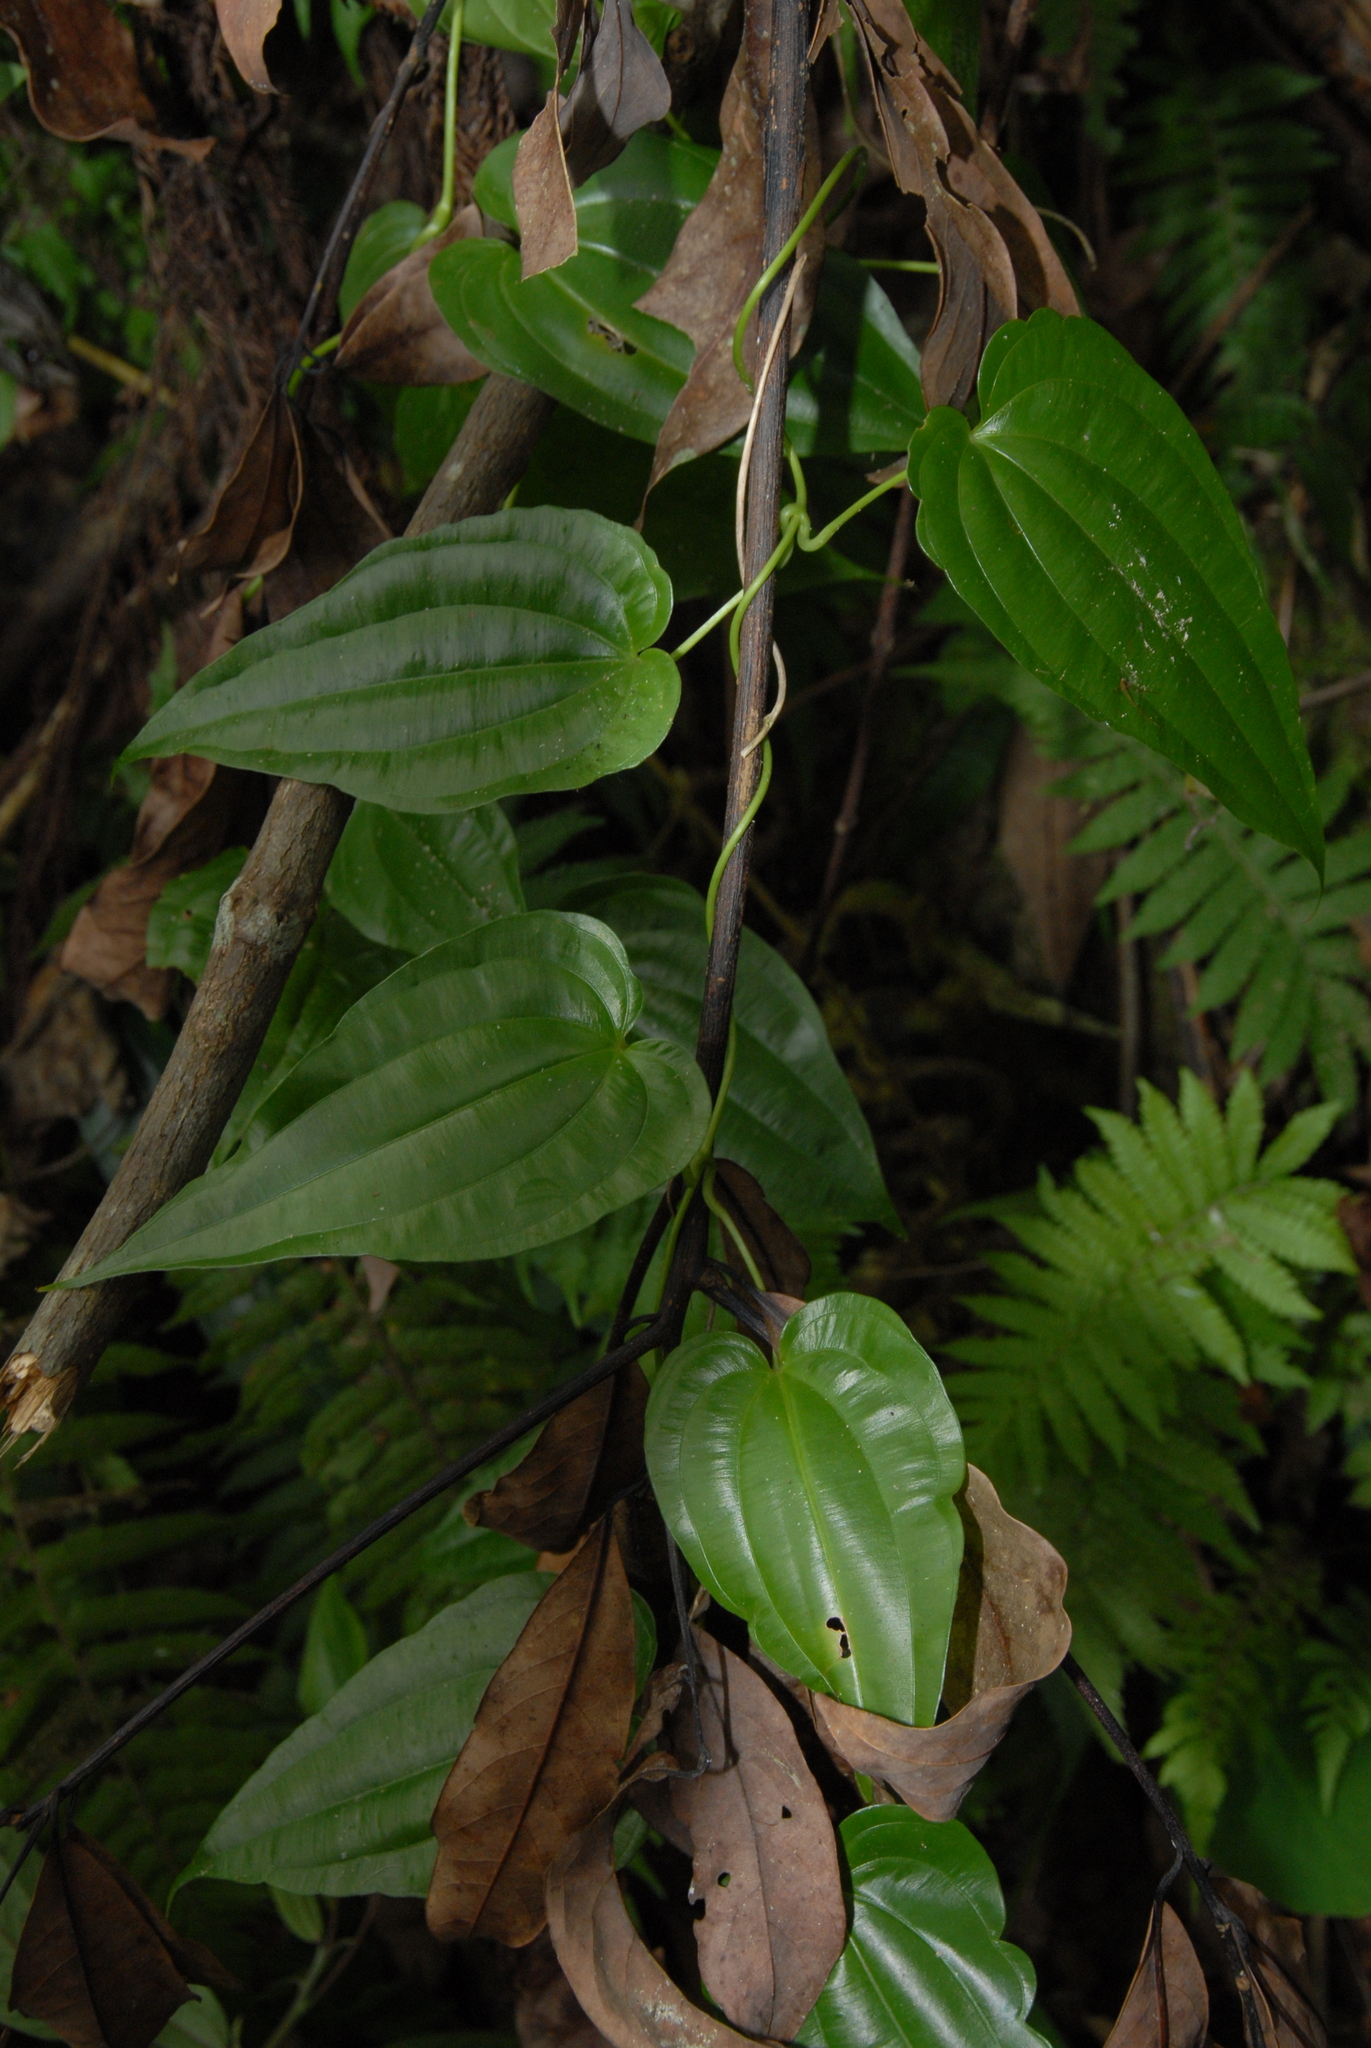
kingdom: Plantae
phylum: Tracheophyta
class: Liliopsida
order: Pandanales
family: Stemonaceae
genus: Stemona
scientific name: Stemona tuberosa
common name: Stemona
